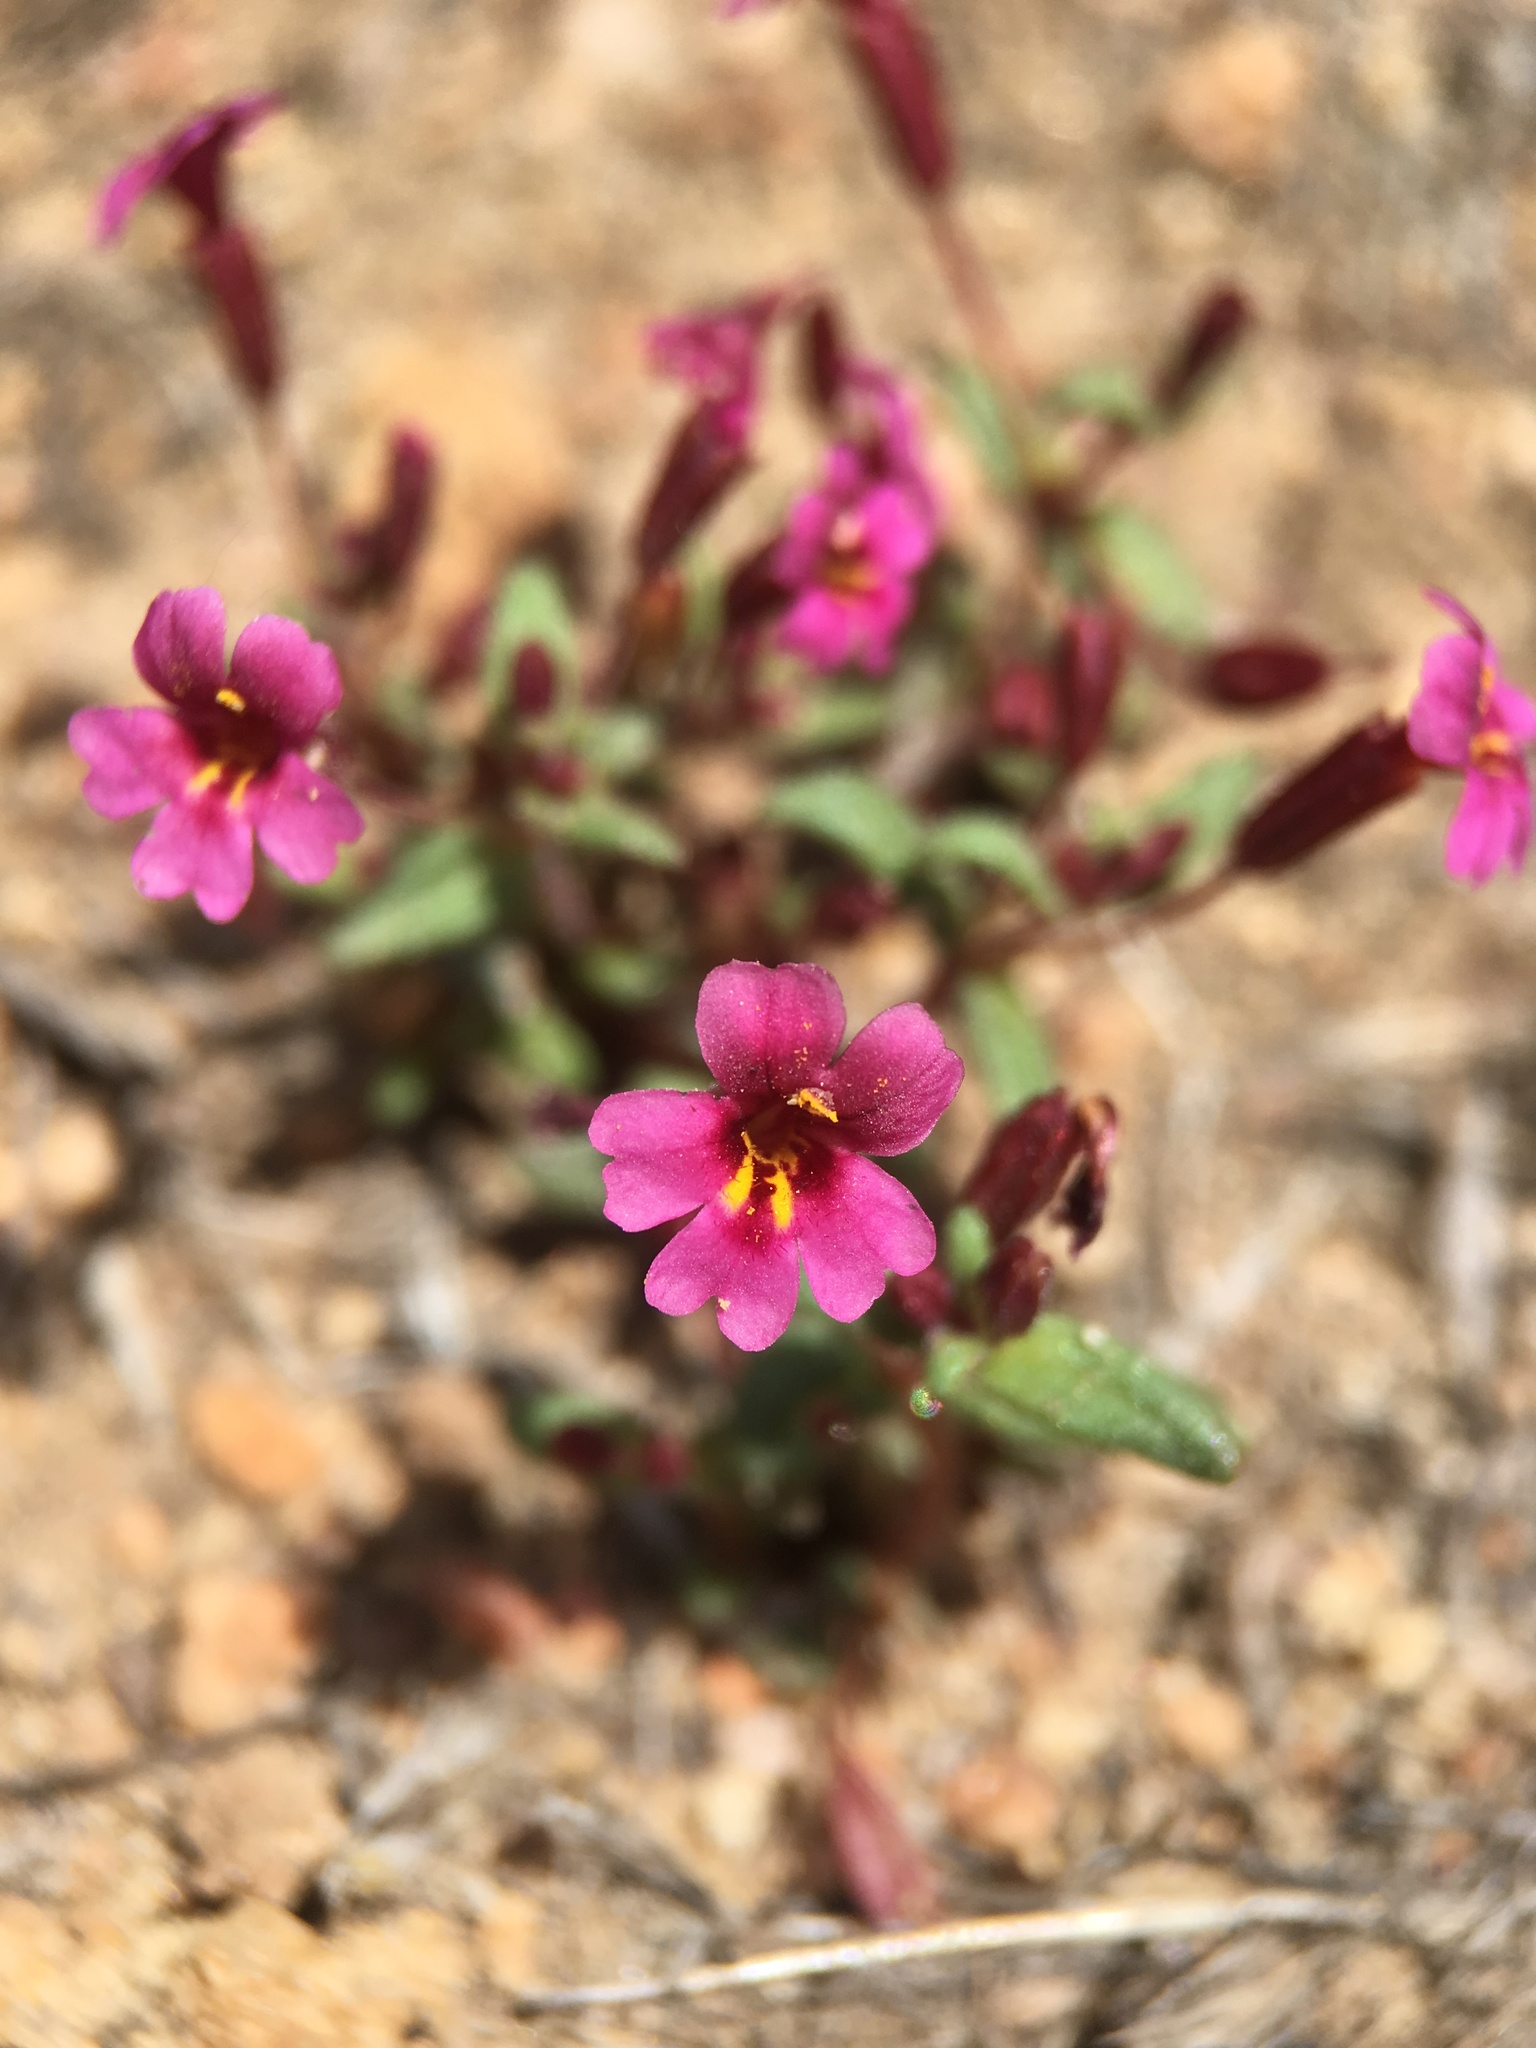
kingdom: Plantae
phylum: Tracheophyta
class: Magnoliopsida
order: Lamiales
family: Phrymaceae
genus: Erythranthe
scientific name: Erythranthe androsacea
